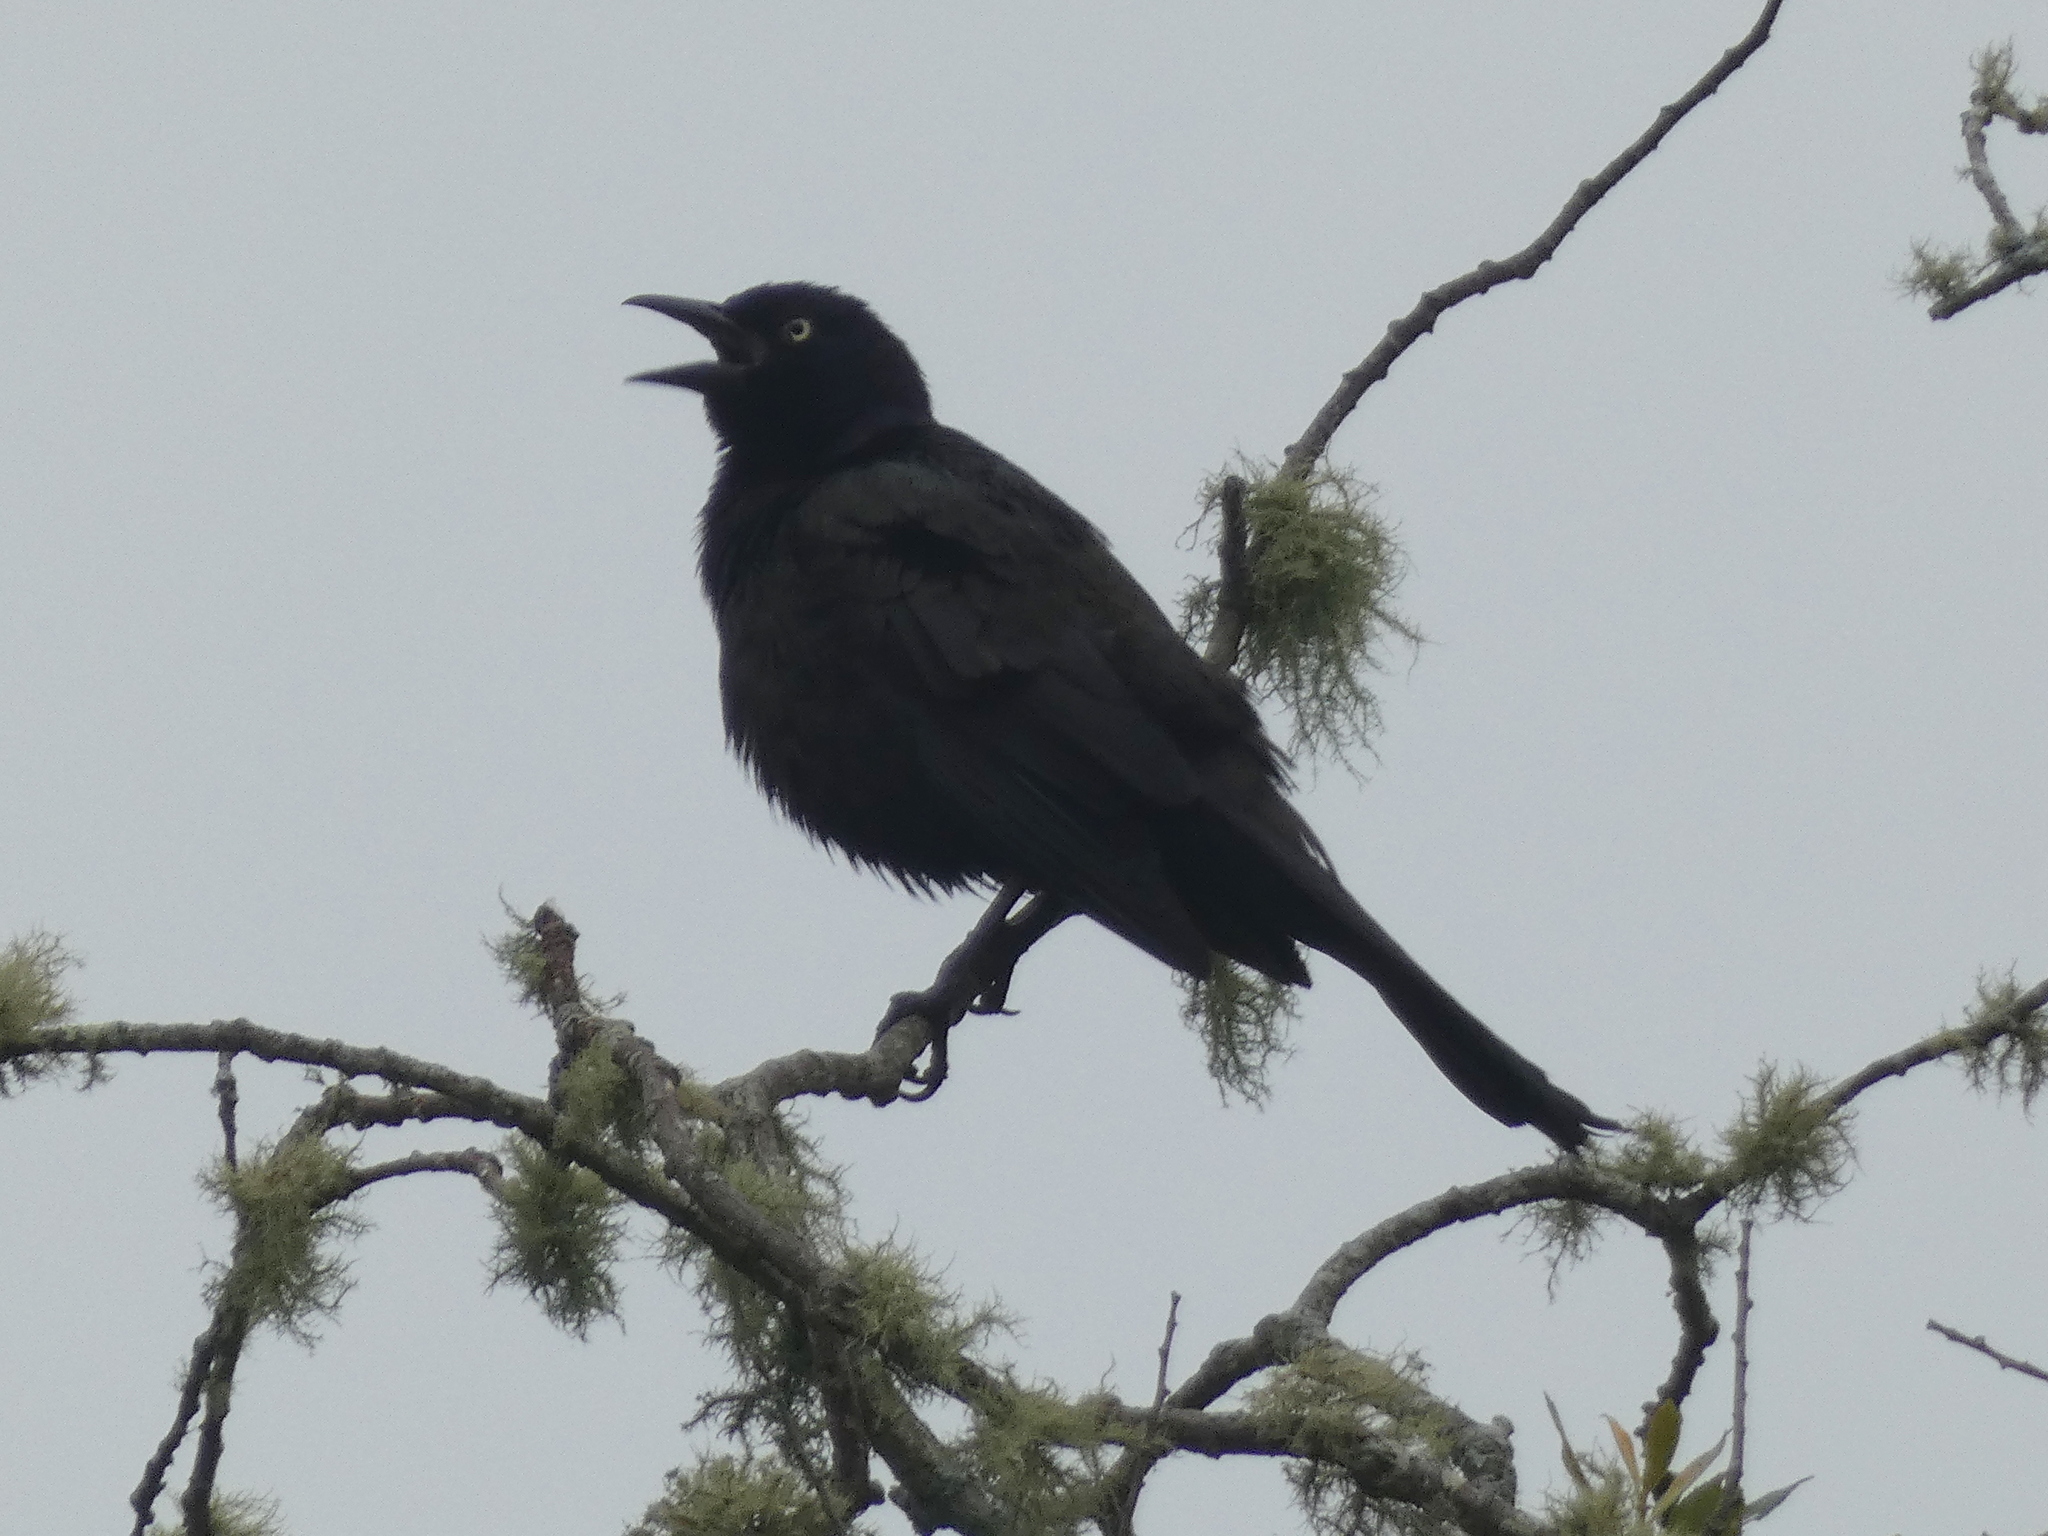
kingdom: Animalia
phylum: Chordata
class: Aves
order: Passeriformes
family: Icteridae
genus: Quiscalus
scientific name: Quiscalus quiscula
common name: Common grackle
